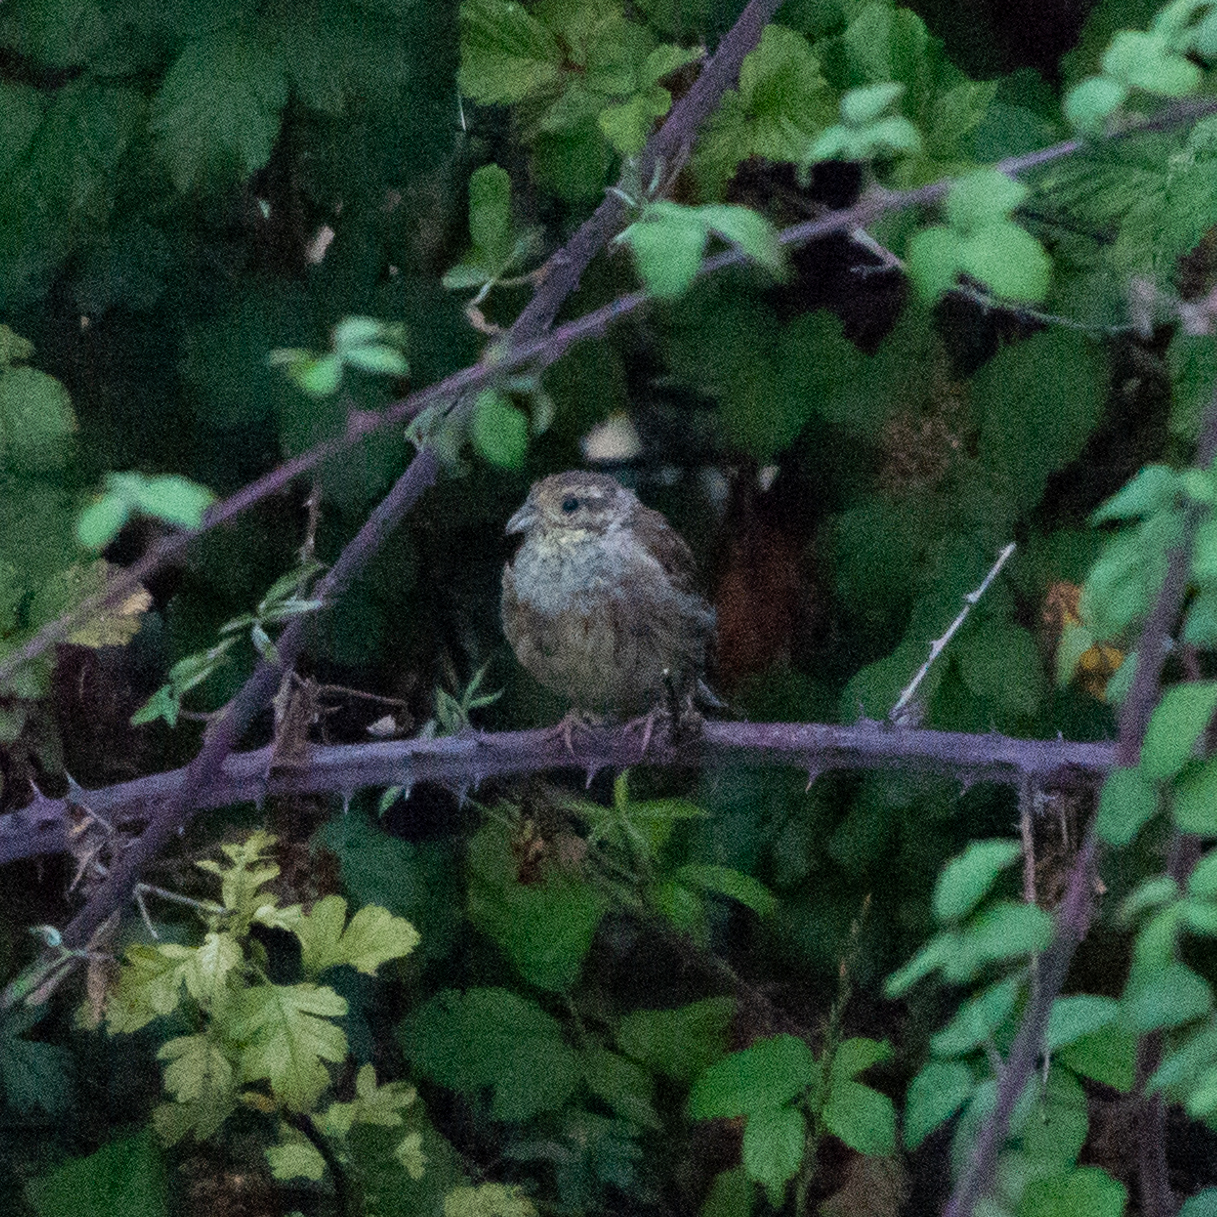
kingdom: Animalia
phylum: Chordata
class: Aves
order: Passeriformes
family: Emberizidae
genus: Emberiza
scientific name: Emberiza cirlus
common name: Cirl bunting
